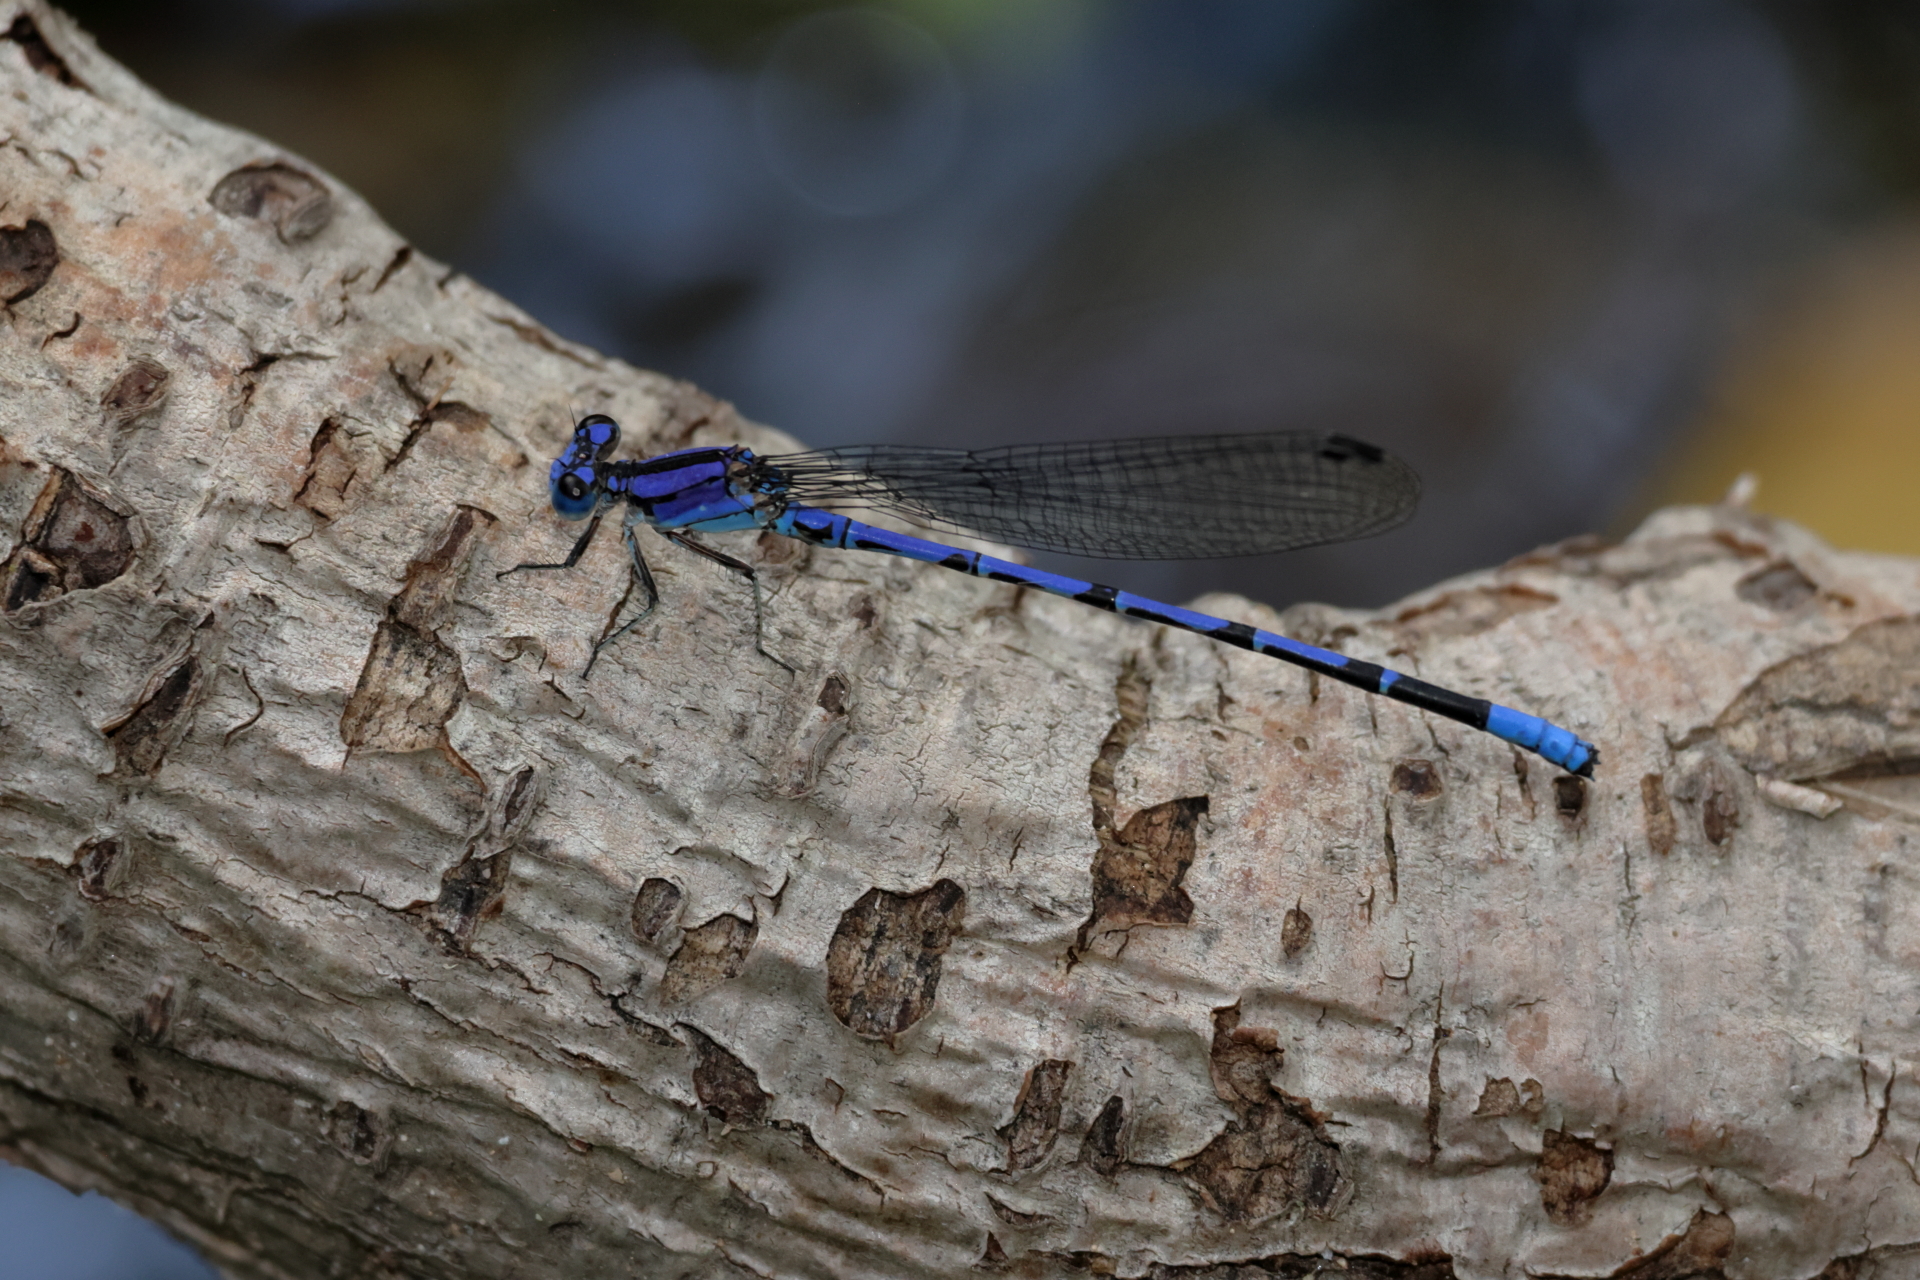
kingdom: Animalia
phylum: Arthropoda
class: Insecta
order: Odonata
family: Coenagrionidae
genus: Argia
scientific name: Argia extranea
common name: Spine-tipped dancer
